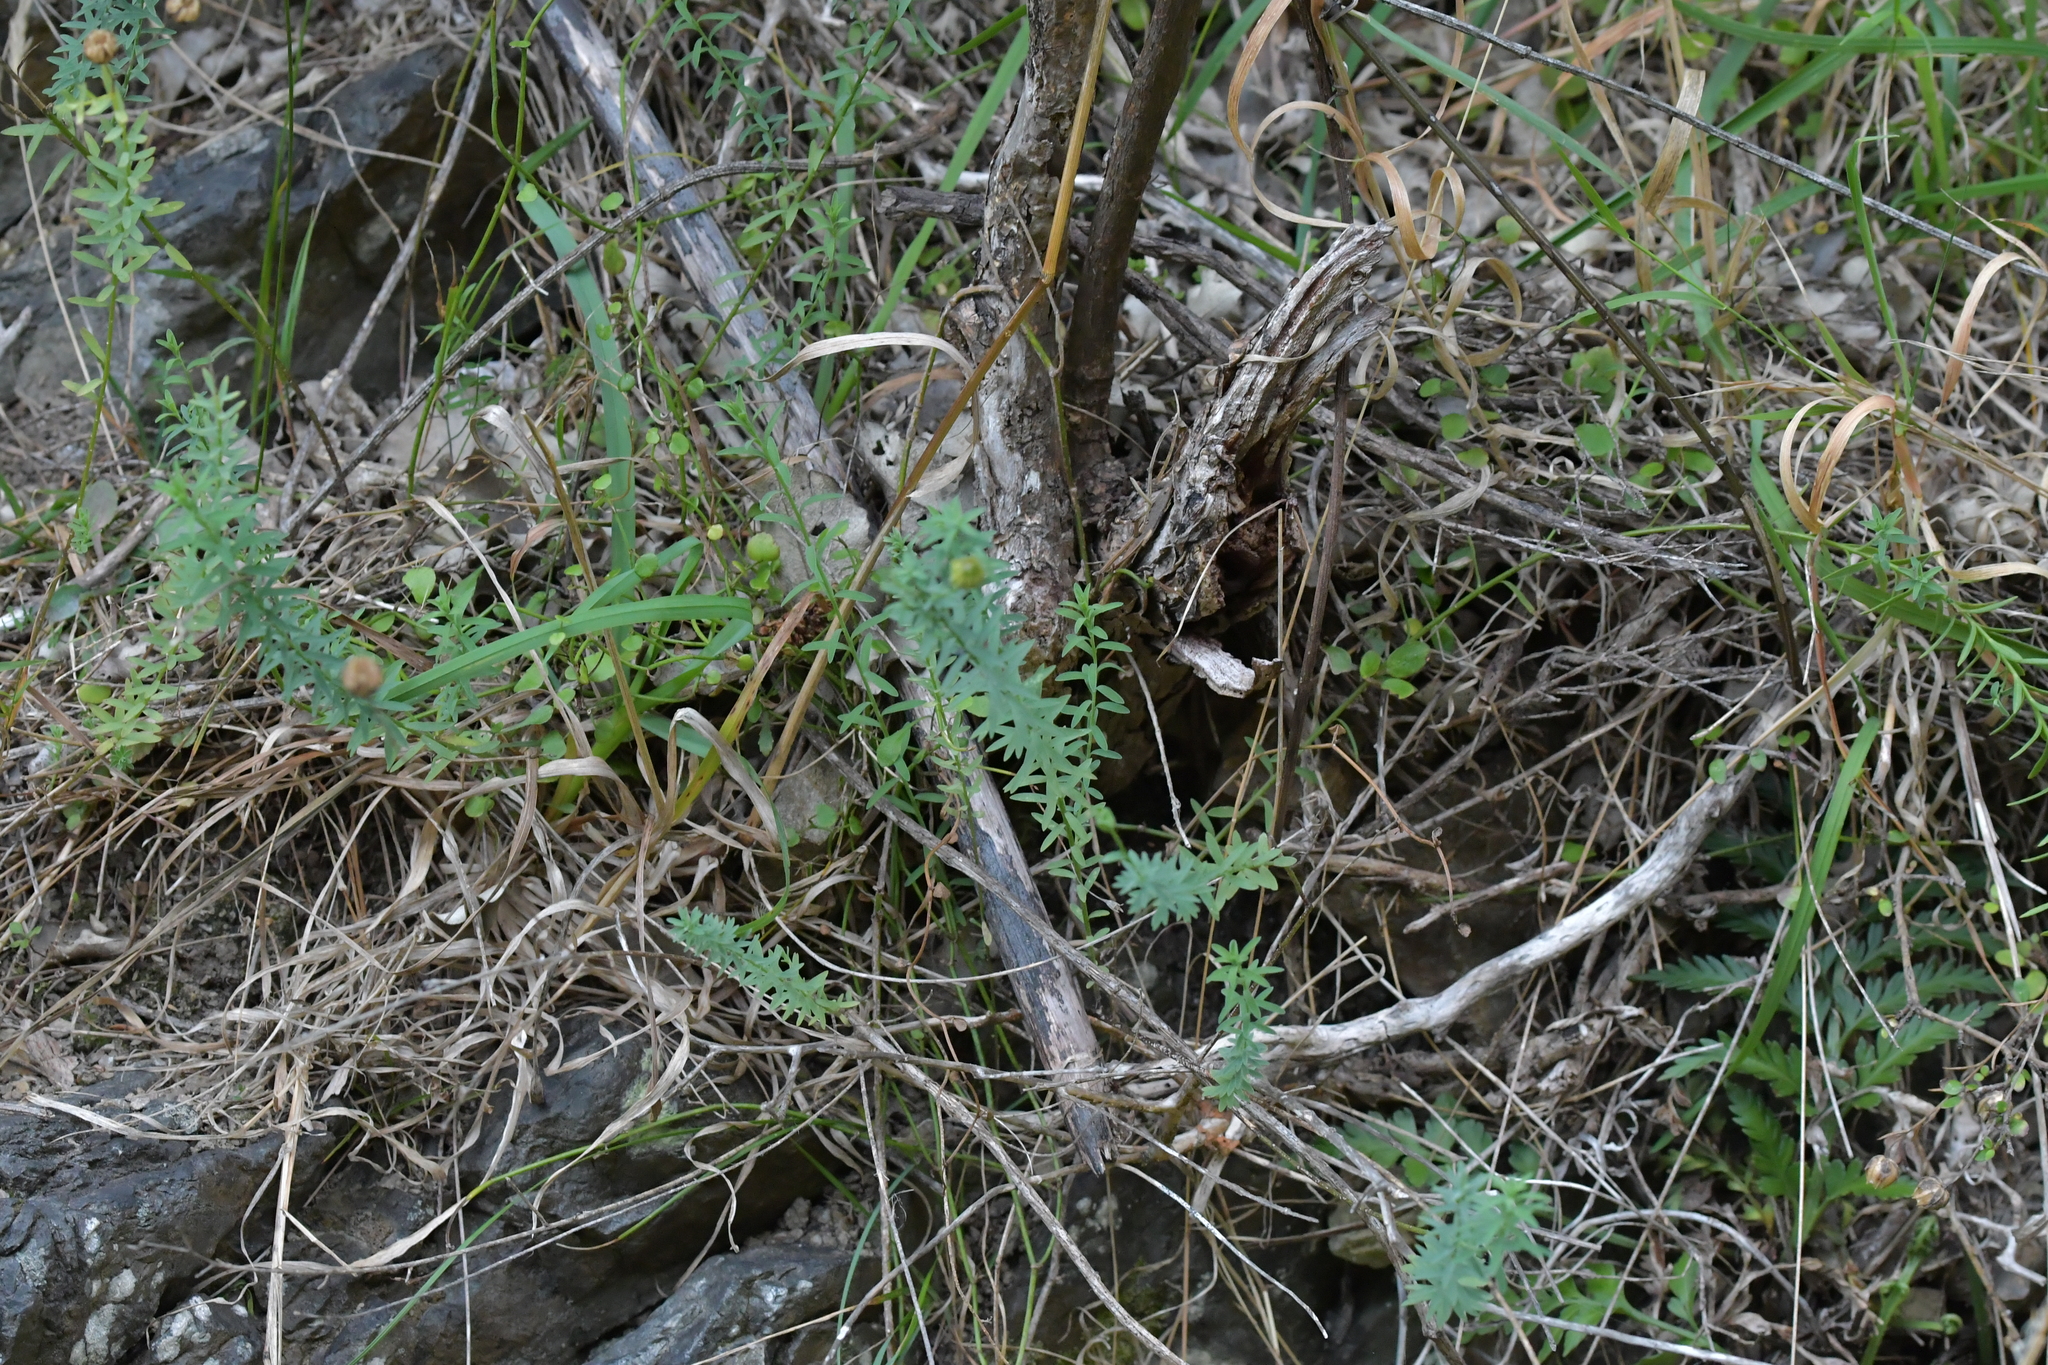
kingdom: Plantae
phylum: Tracheophyta
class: Magnoliopsida
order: Malpighiales
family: Linaceae
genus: Linum
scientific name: Linum monogynum
